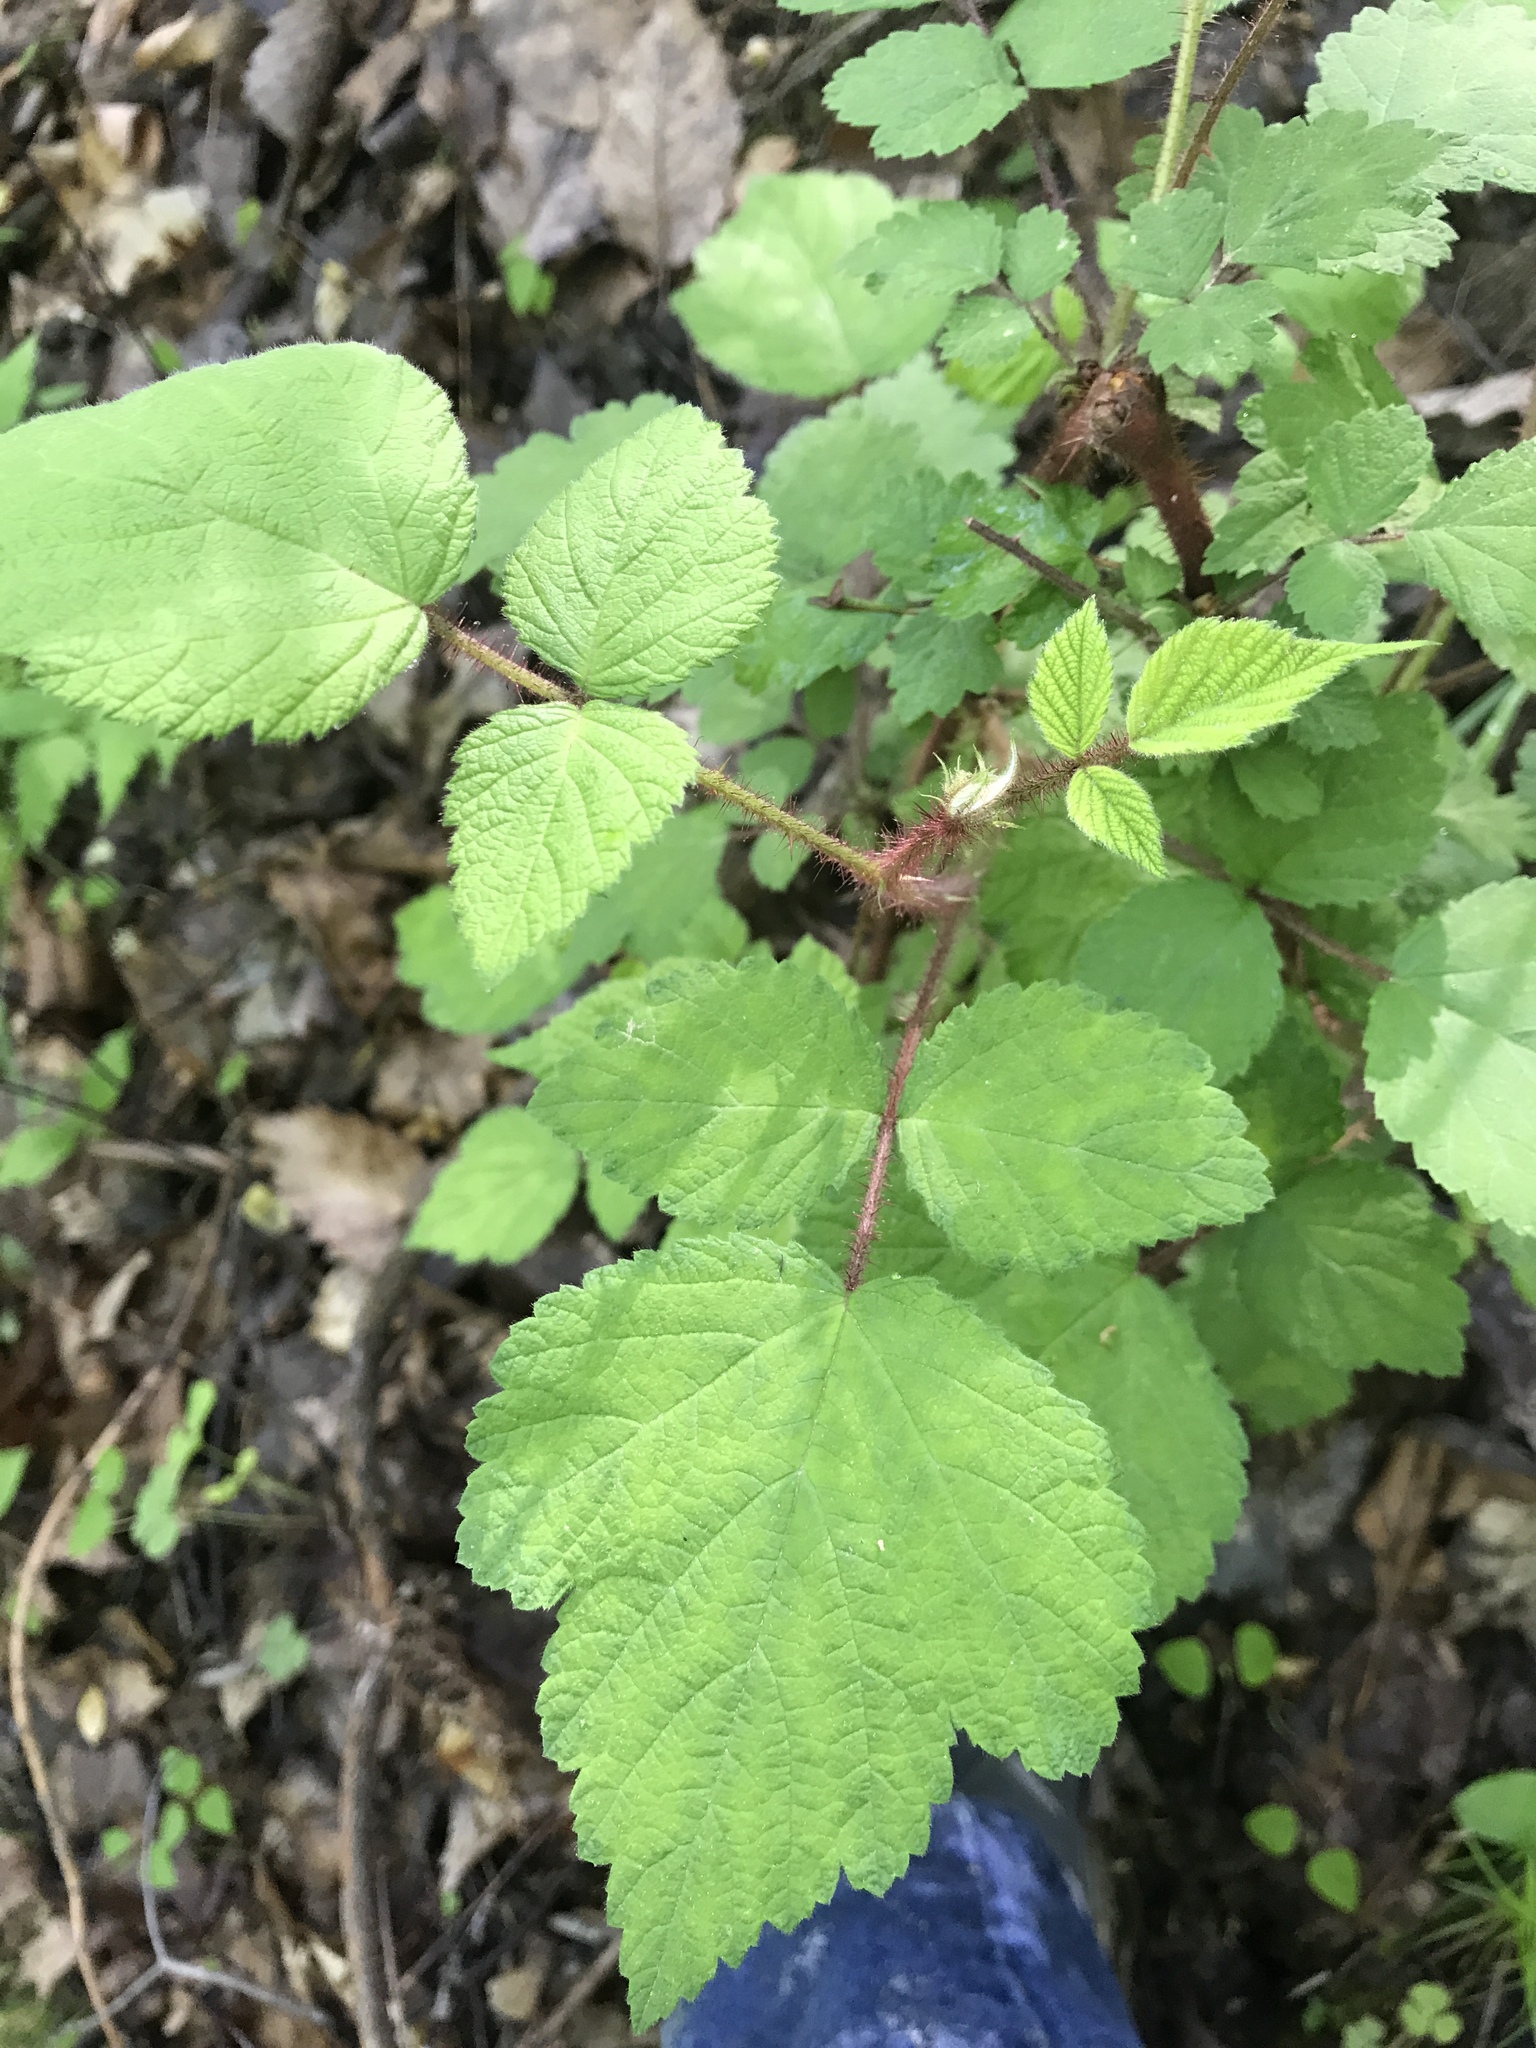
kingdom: Plantae
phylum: Tracheophyta
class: Magnoliopsida
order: Rosales
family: Rosaceae
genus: Rubus
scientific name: Rubus phoenicolasius
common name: Japanese wineberry
